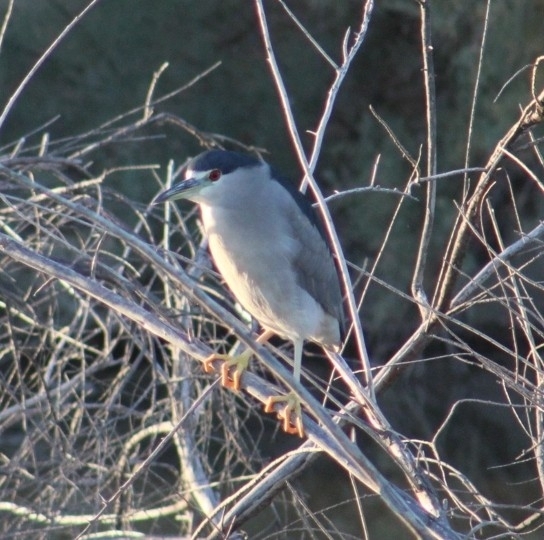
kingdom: Animalia
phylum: Chordata
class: Aves
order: Pelecaniformes
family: Ardeidae
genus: Nycticorax
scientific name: Nycticorax nycticorax
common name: Black-crowned night heron
